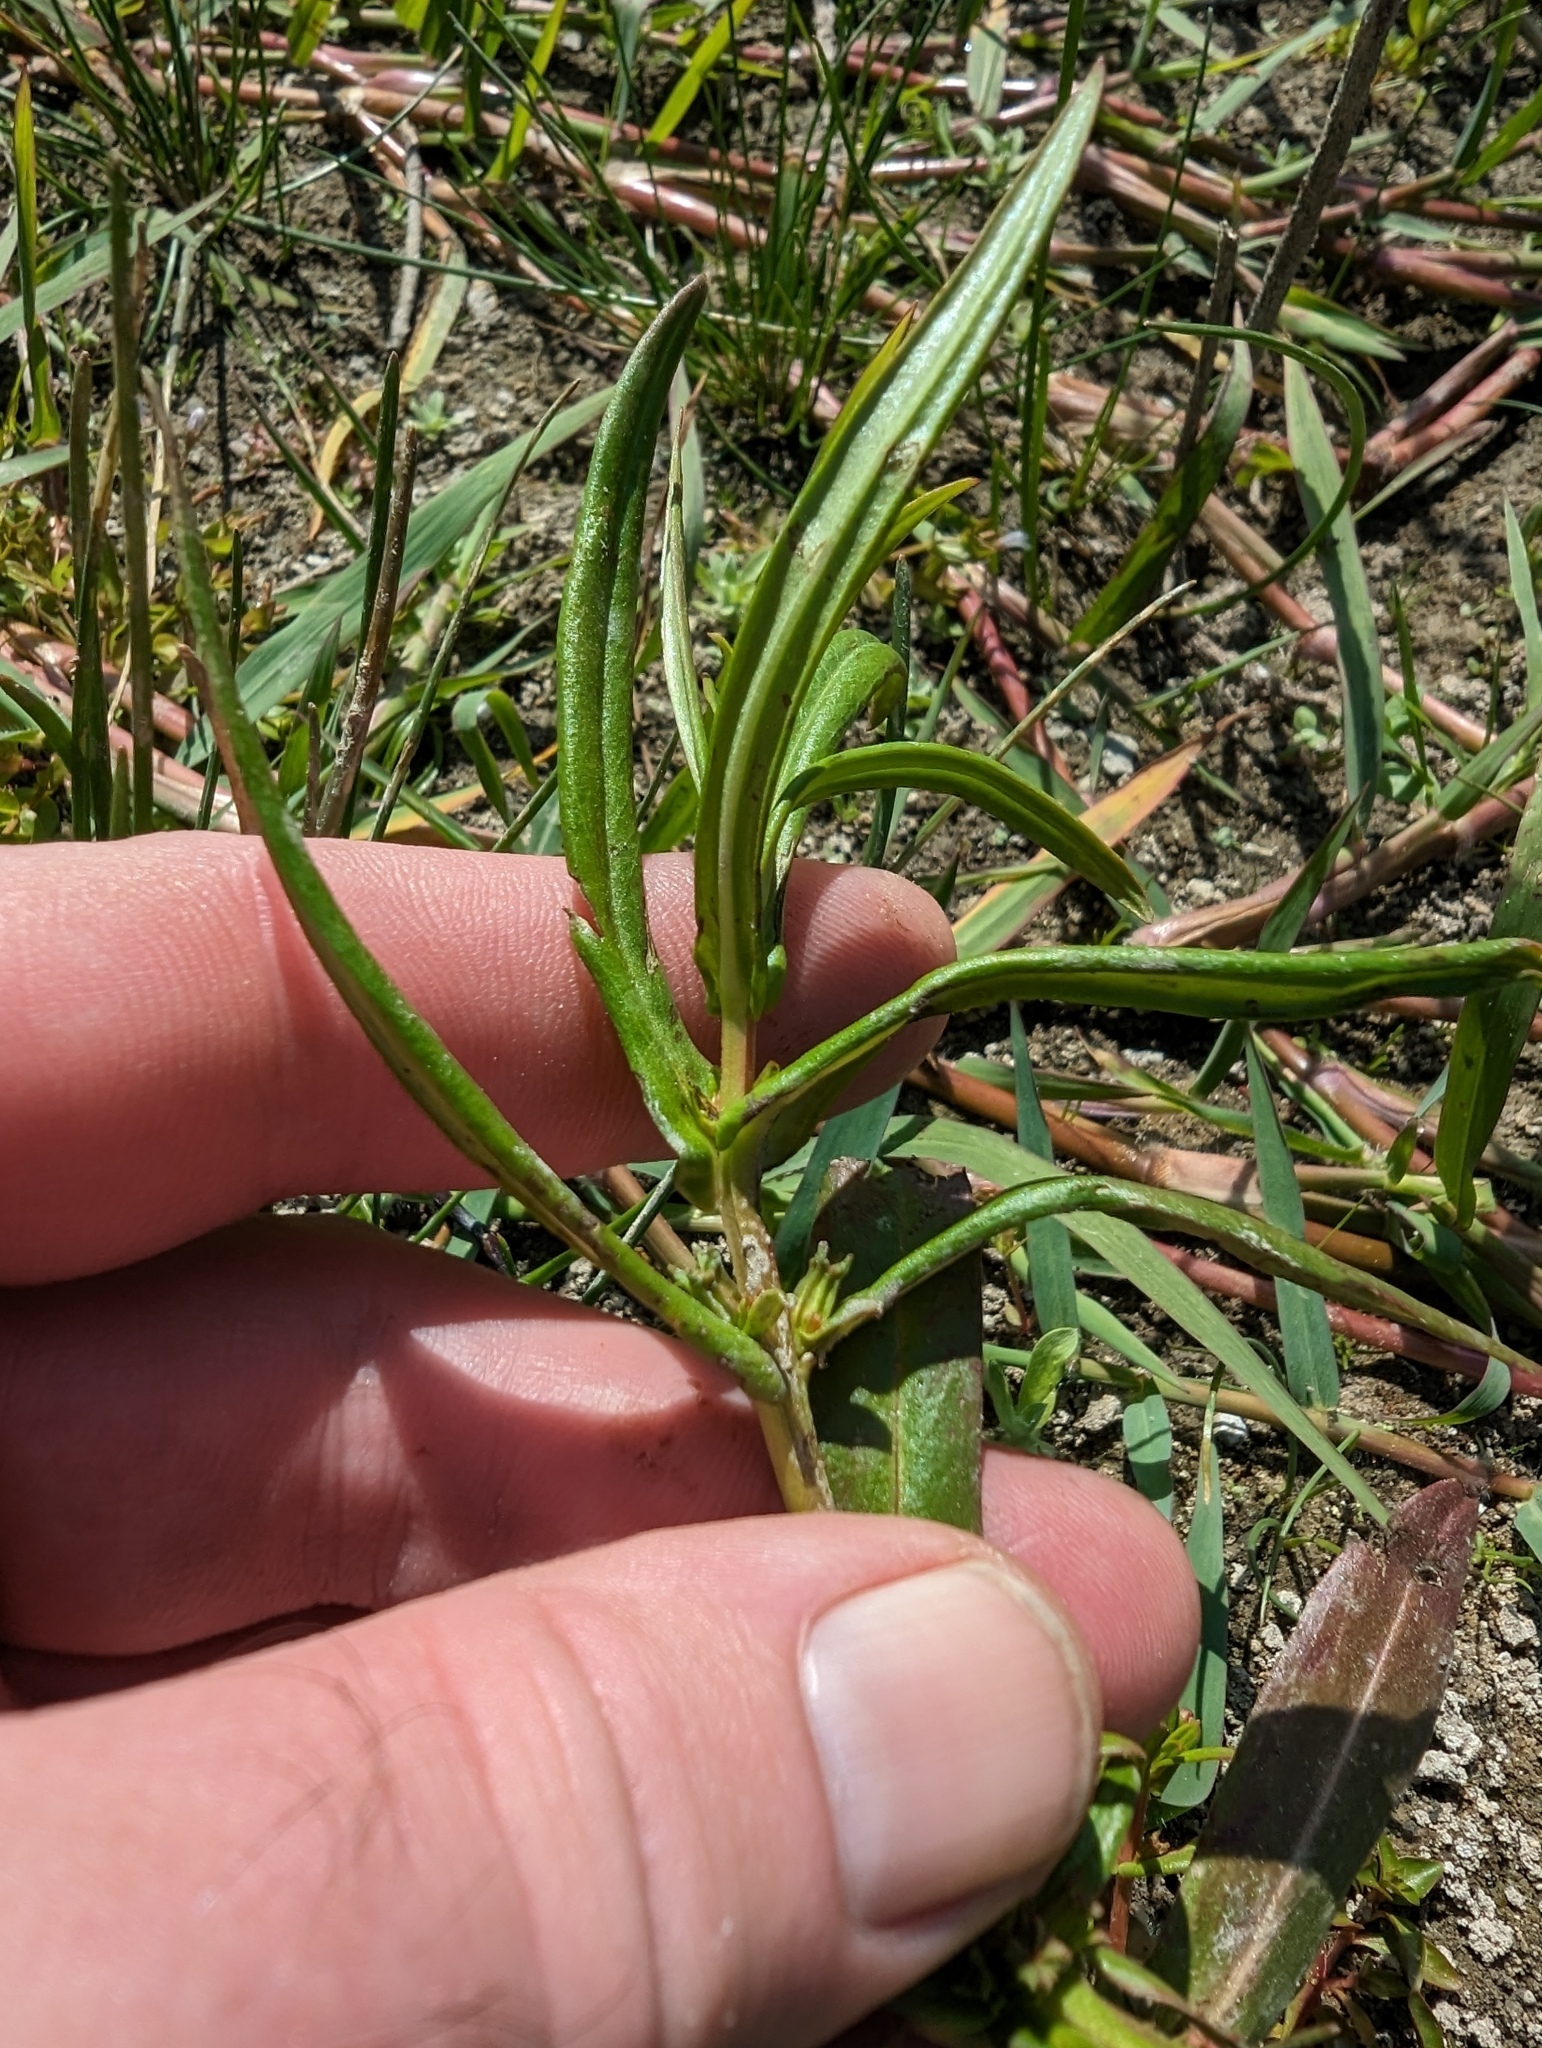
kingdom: Plantae
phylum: Tracheophyta
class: Magnoliopsida
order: Myrtales
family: Lythraceae
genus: Ammannia
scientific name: Ammannia robusta
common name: Grand ammannia
